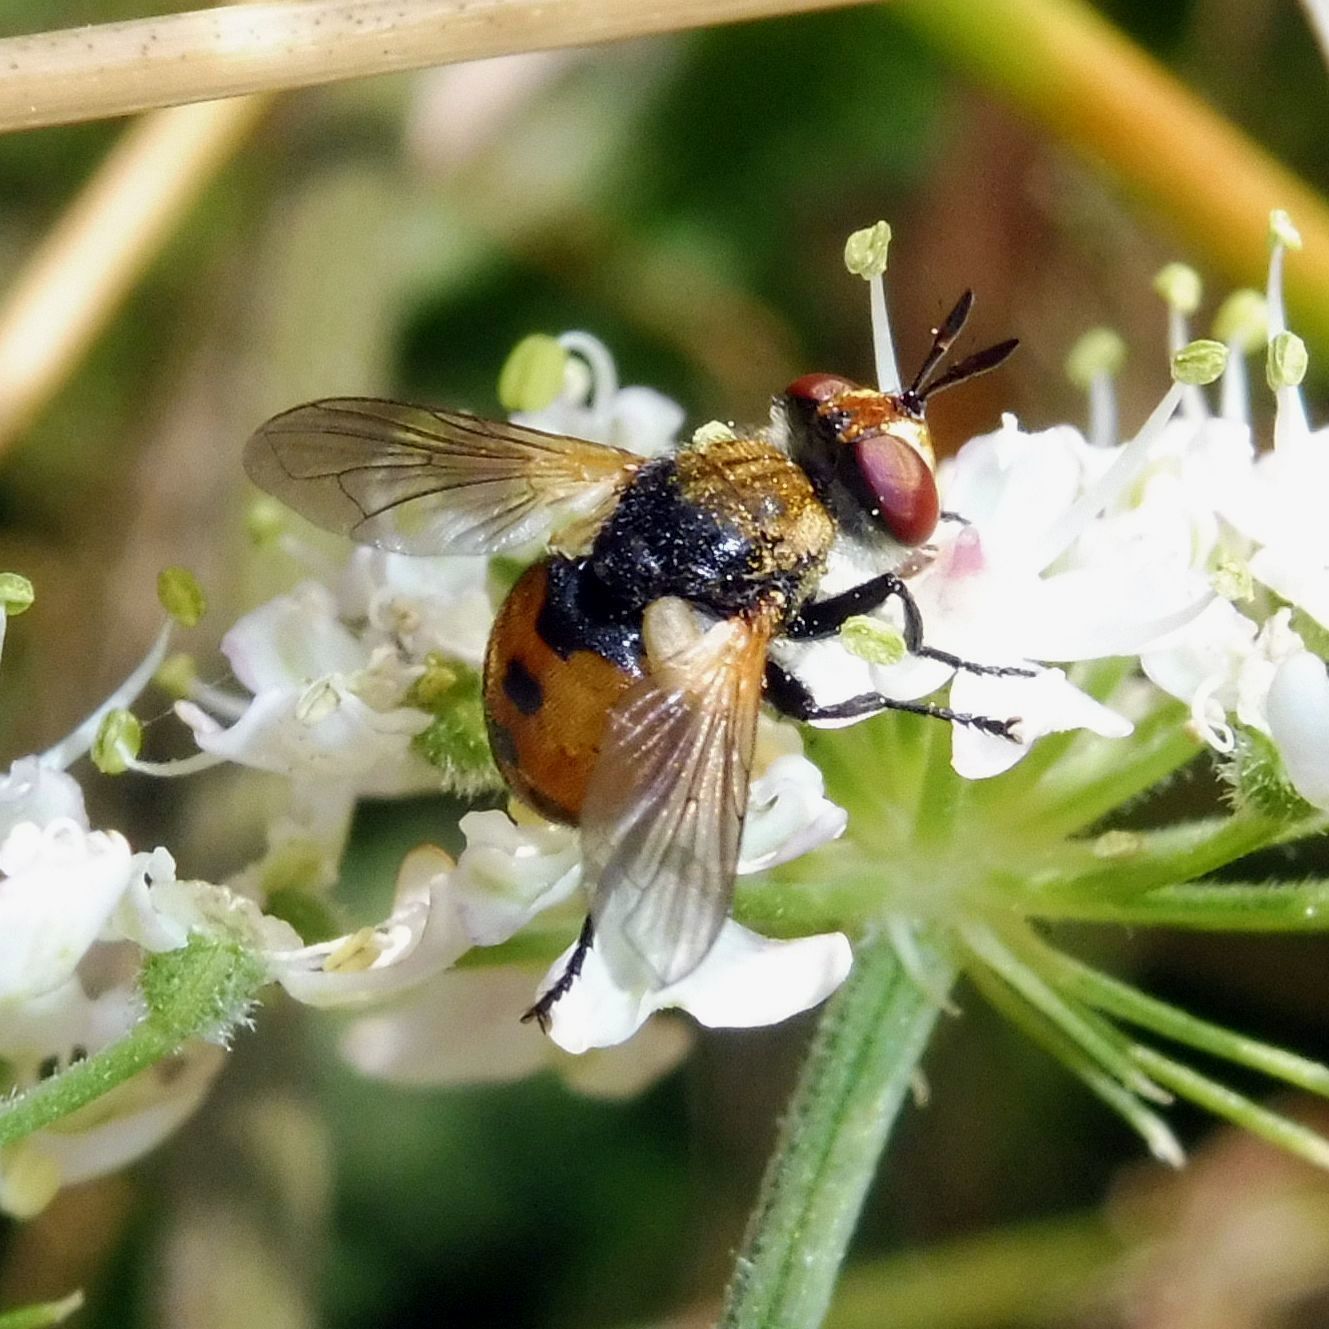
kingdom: Animalia
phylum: Arthropoda
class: Insecta
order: Diptera
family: Tachinidae
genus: Gymnosoma
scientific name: Gymnosoma rotundatum
